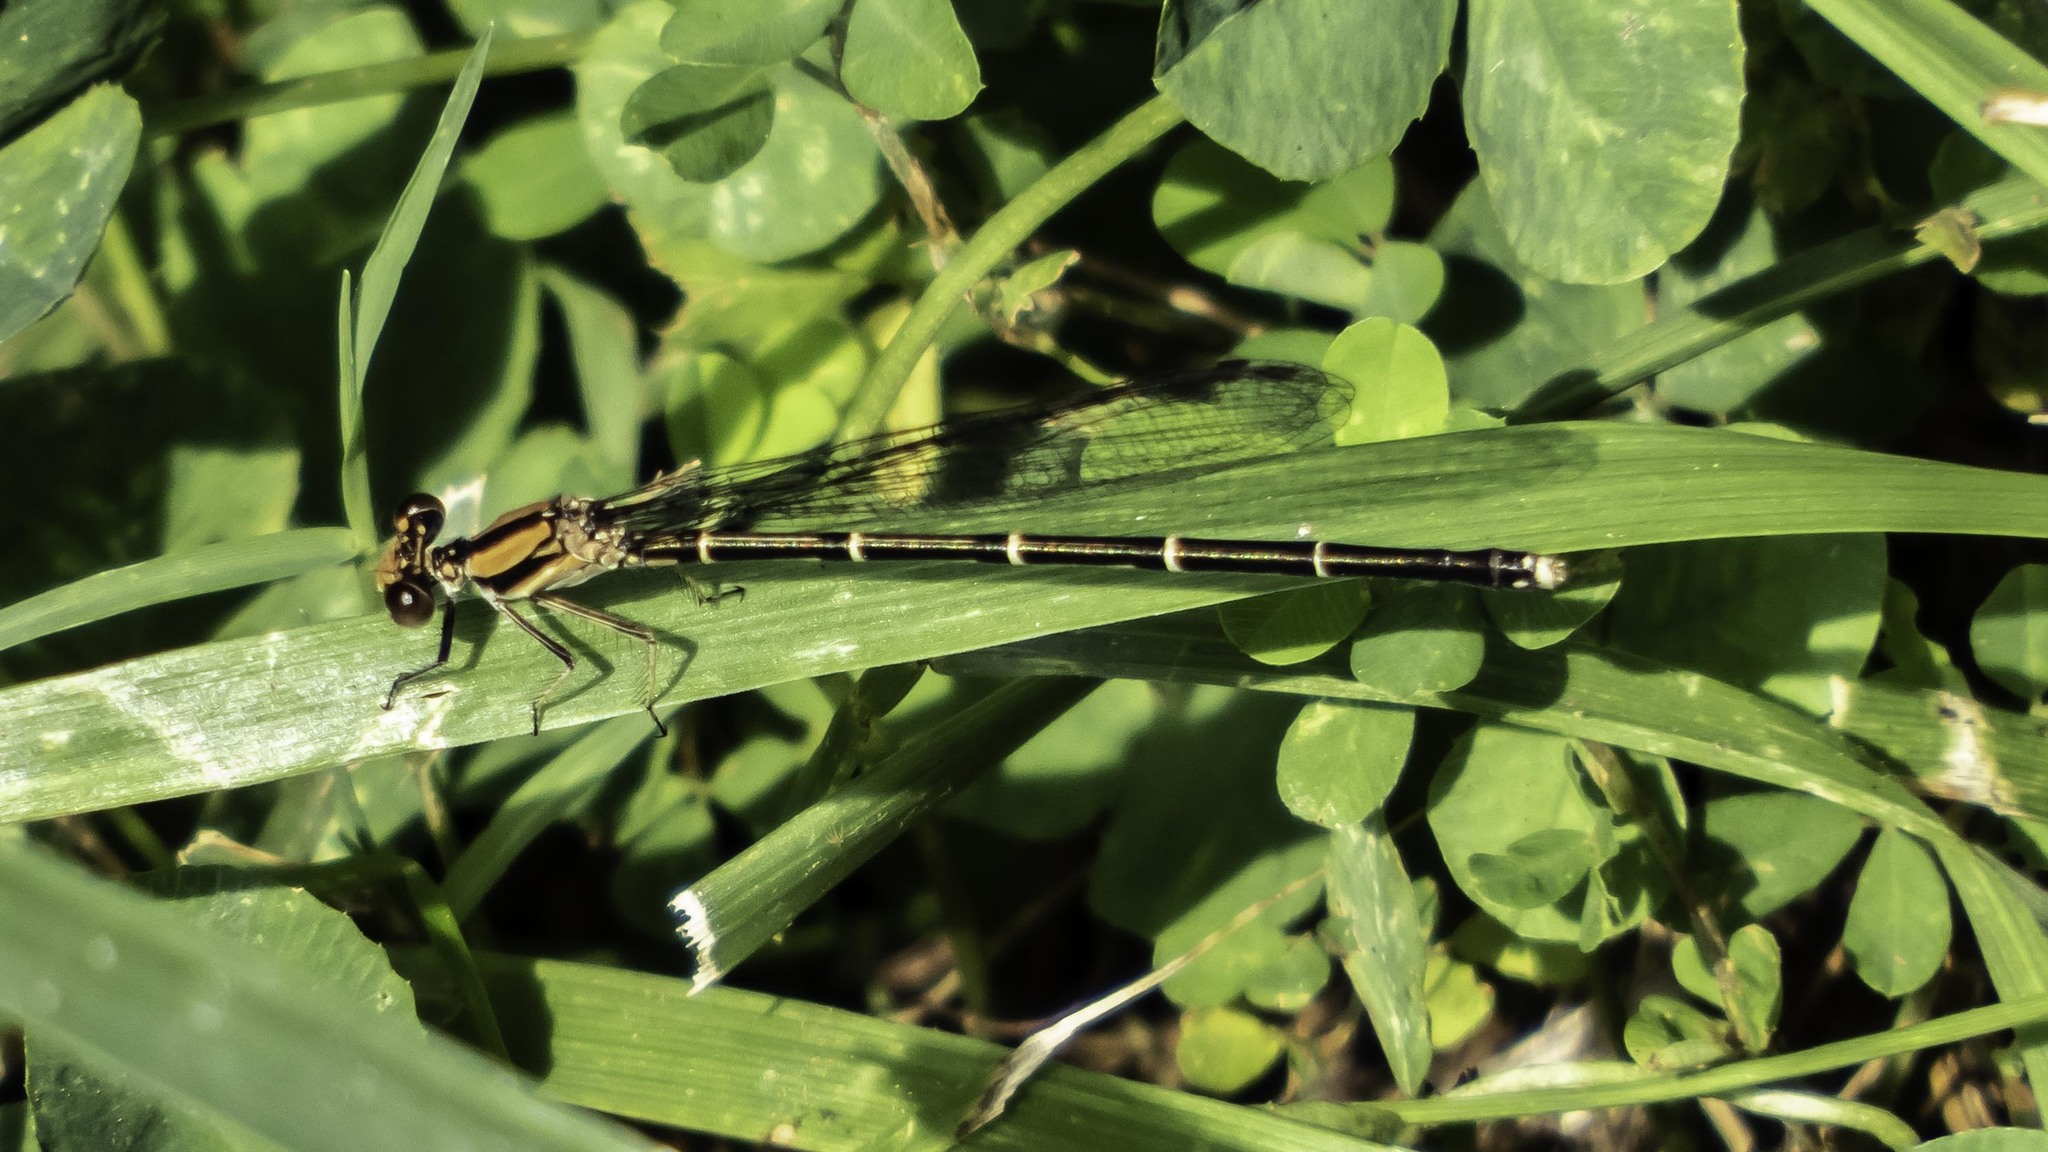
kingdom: Animalia
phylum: Arthropoda
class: Insecta
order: Odonata
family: Coenagrionidae
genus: Argia
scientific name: Argia tibialis
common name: Blue-tipped dancer
